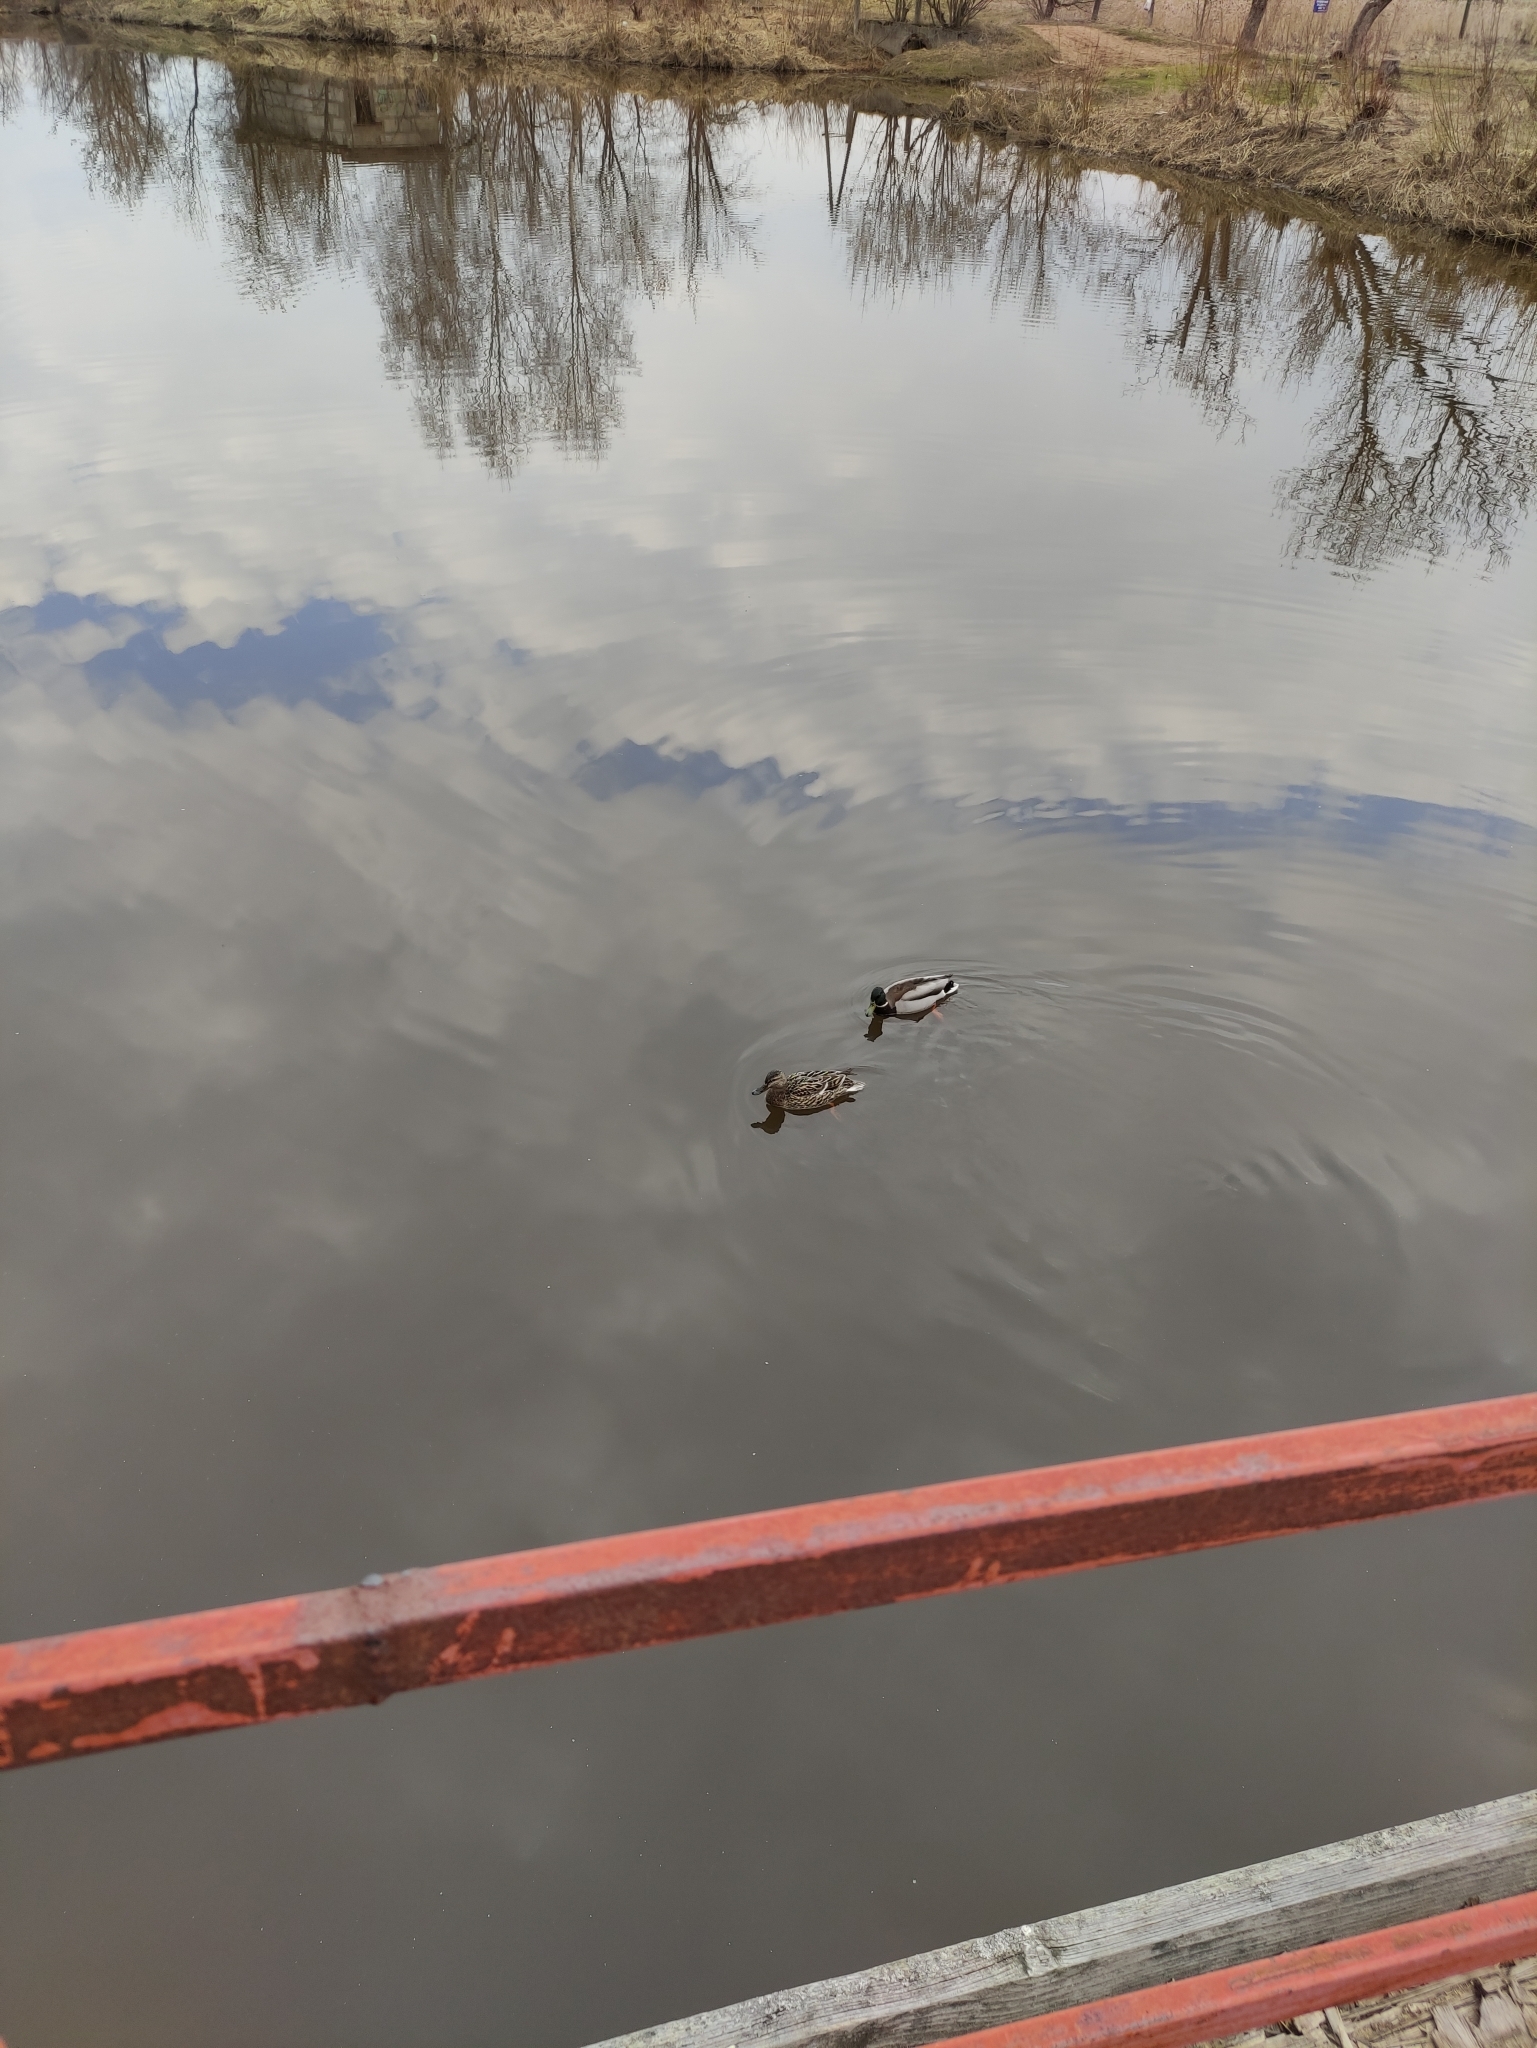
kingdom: Animalia
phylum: Chordata
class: Aves
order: Anseriformes
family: Anatidae
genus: Anas
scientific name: Anas platyrhynchos
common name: Mallard
